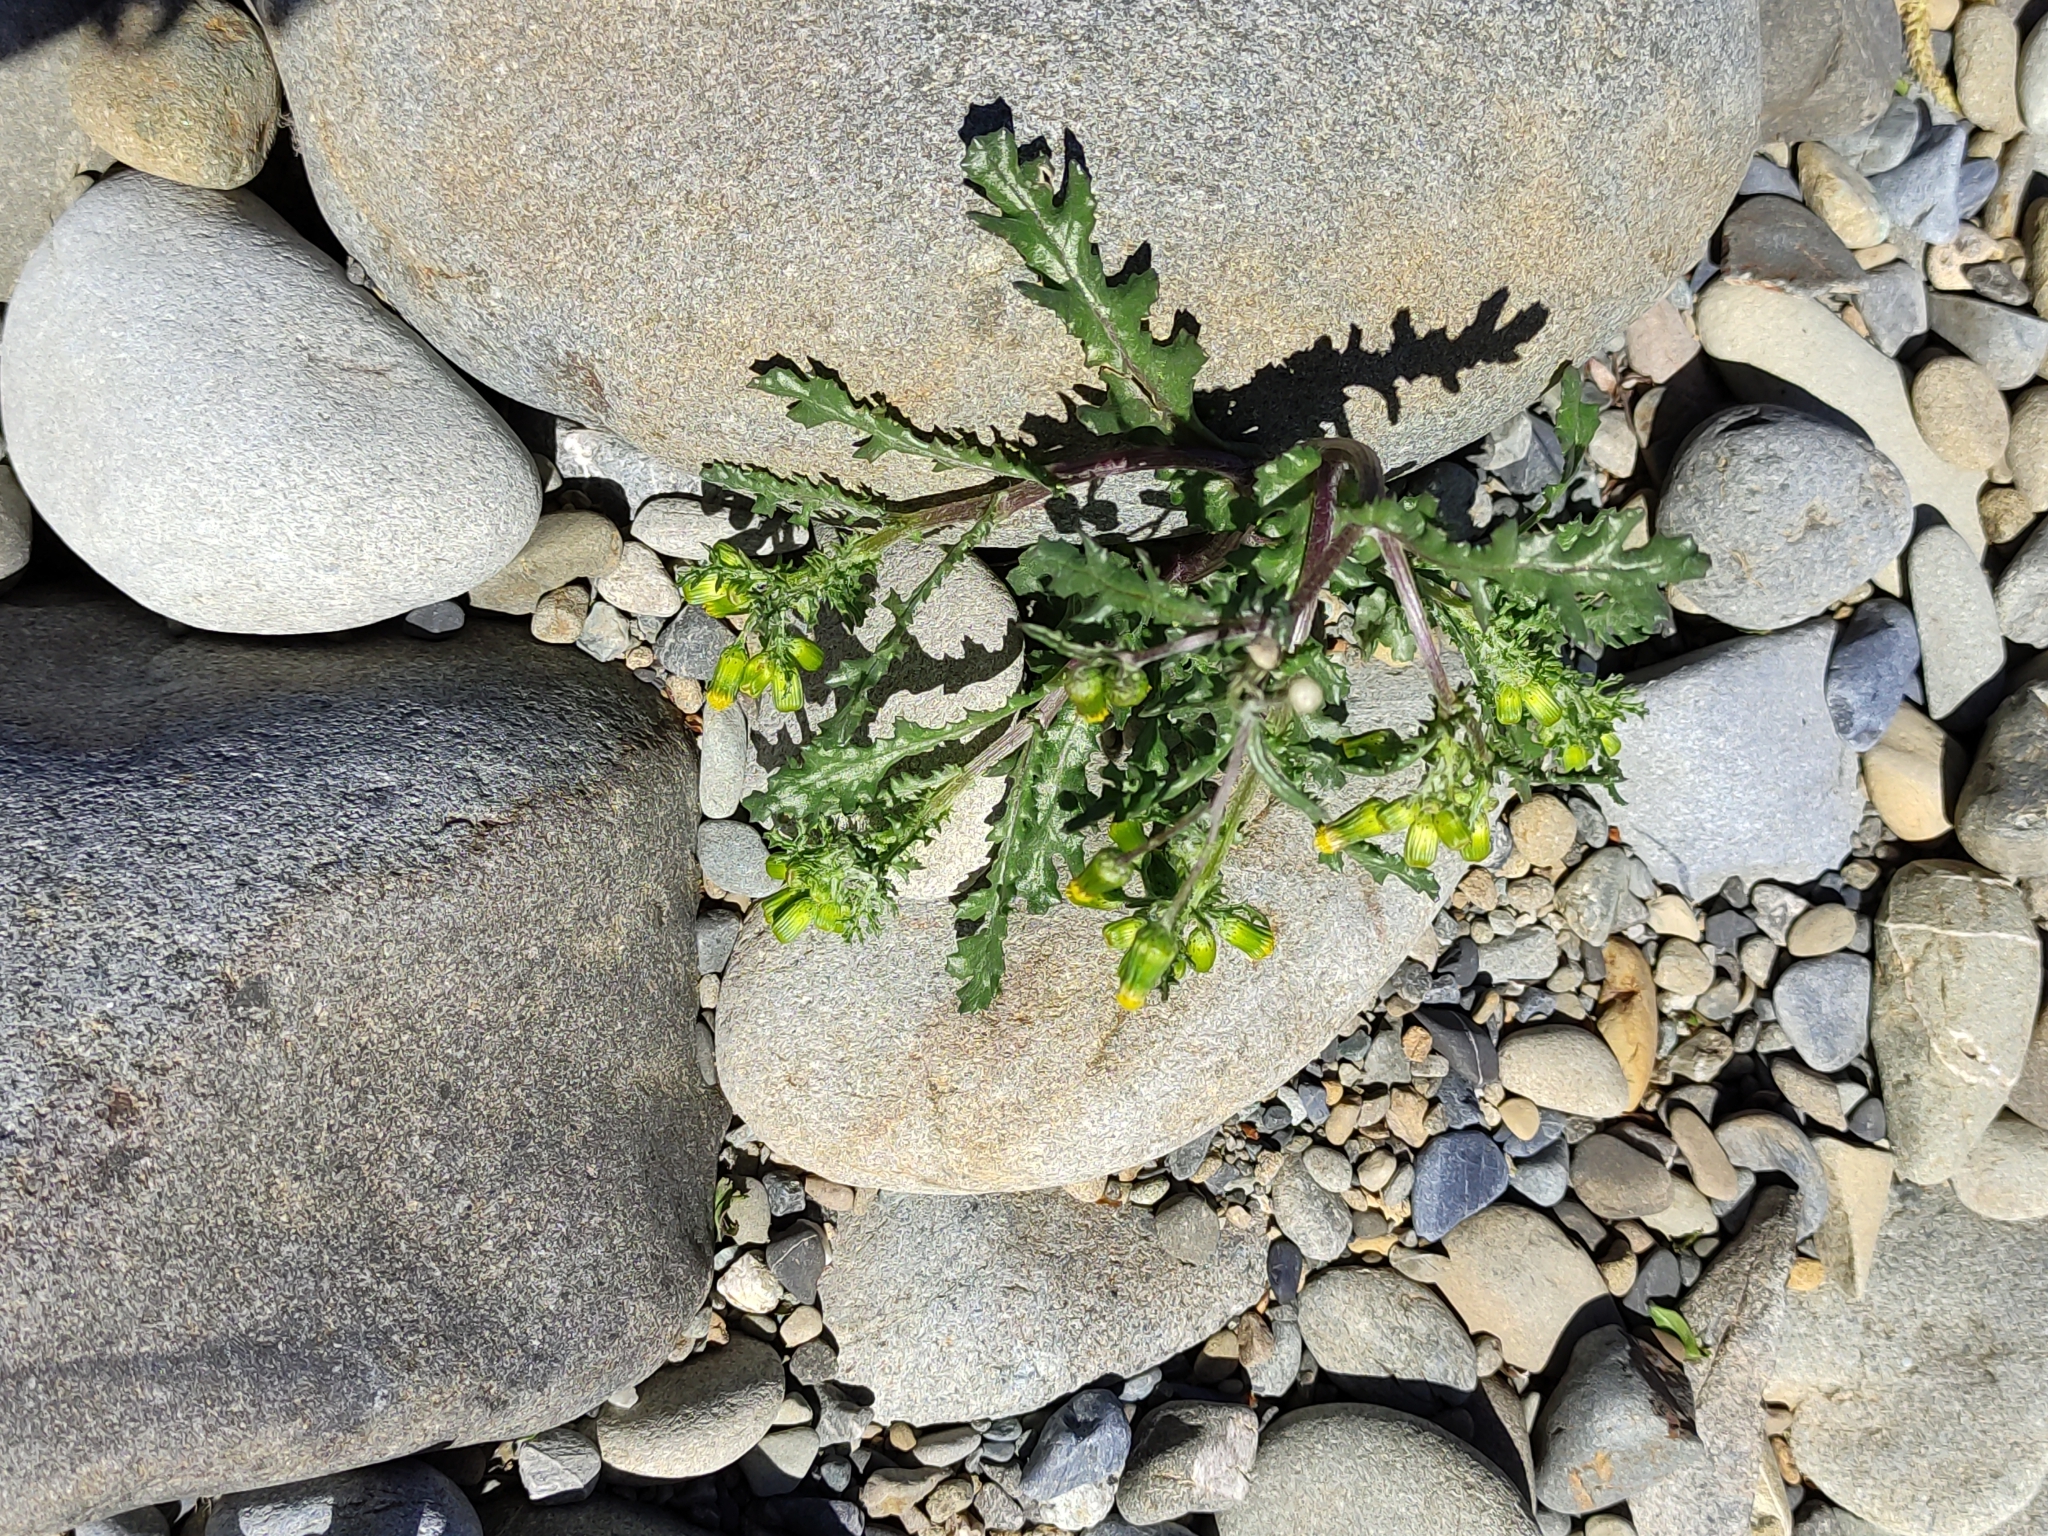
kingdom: Plantae
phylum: Tracheophyta
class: Magnoliopsida
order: Asterales
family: Asteraceae
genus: Senecio
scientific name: Senecio vulgaris
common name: Old-man-in-the-spring
